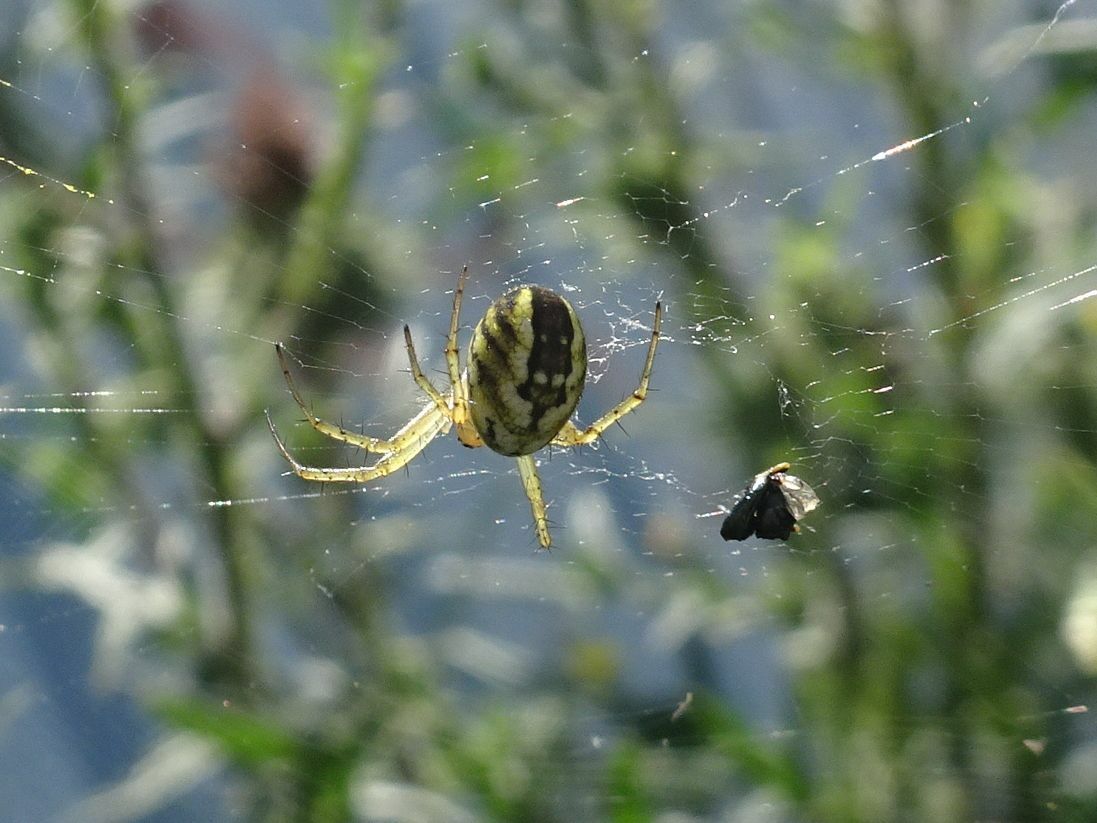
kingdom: Animalia
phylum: Arthropoda
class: Arachnida
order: Araneae
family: Araneidae
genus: Mangora
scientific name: Mangora acalypha
